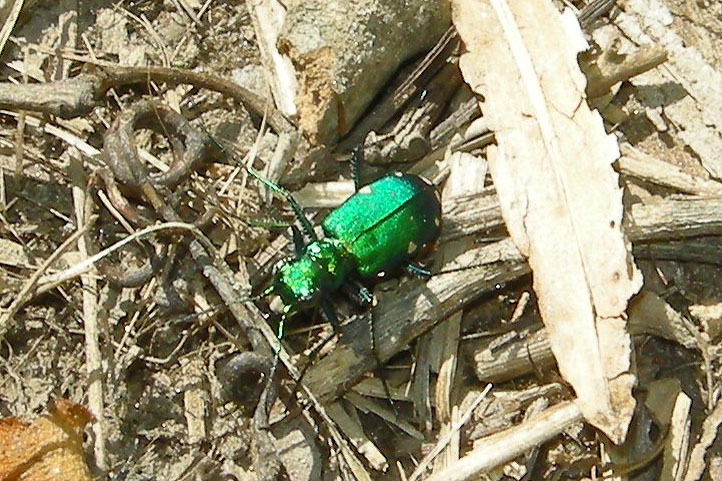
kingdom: Animalia
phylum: Arthropoda
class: Insecta
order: Coleoptera
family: Carabidae
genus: Cicindela
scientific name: Cicindela sexguttata
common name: Six-spotted tiger beetle
